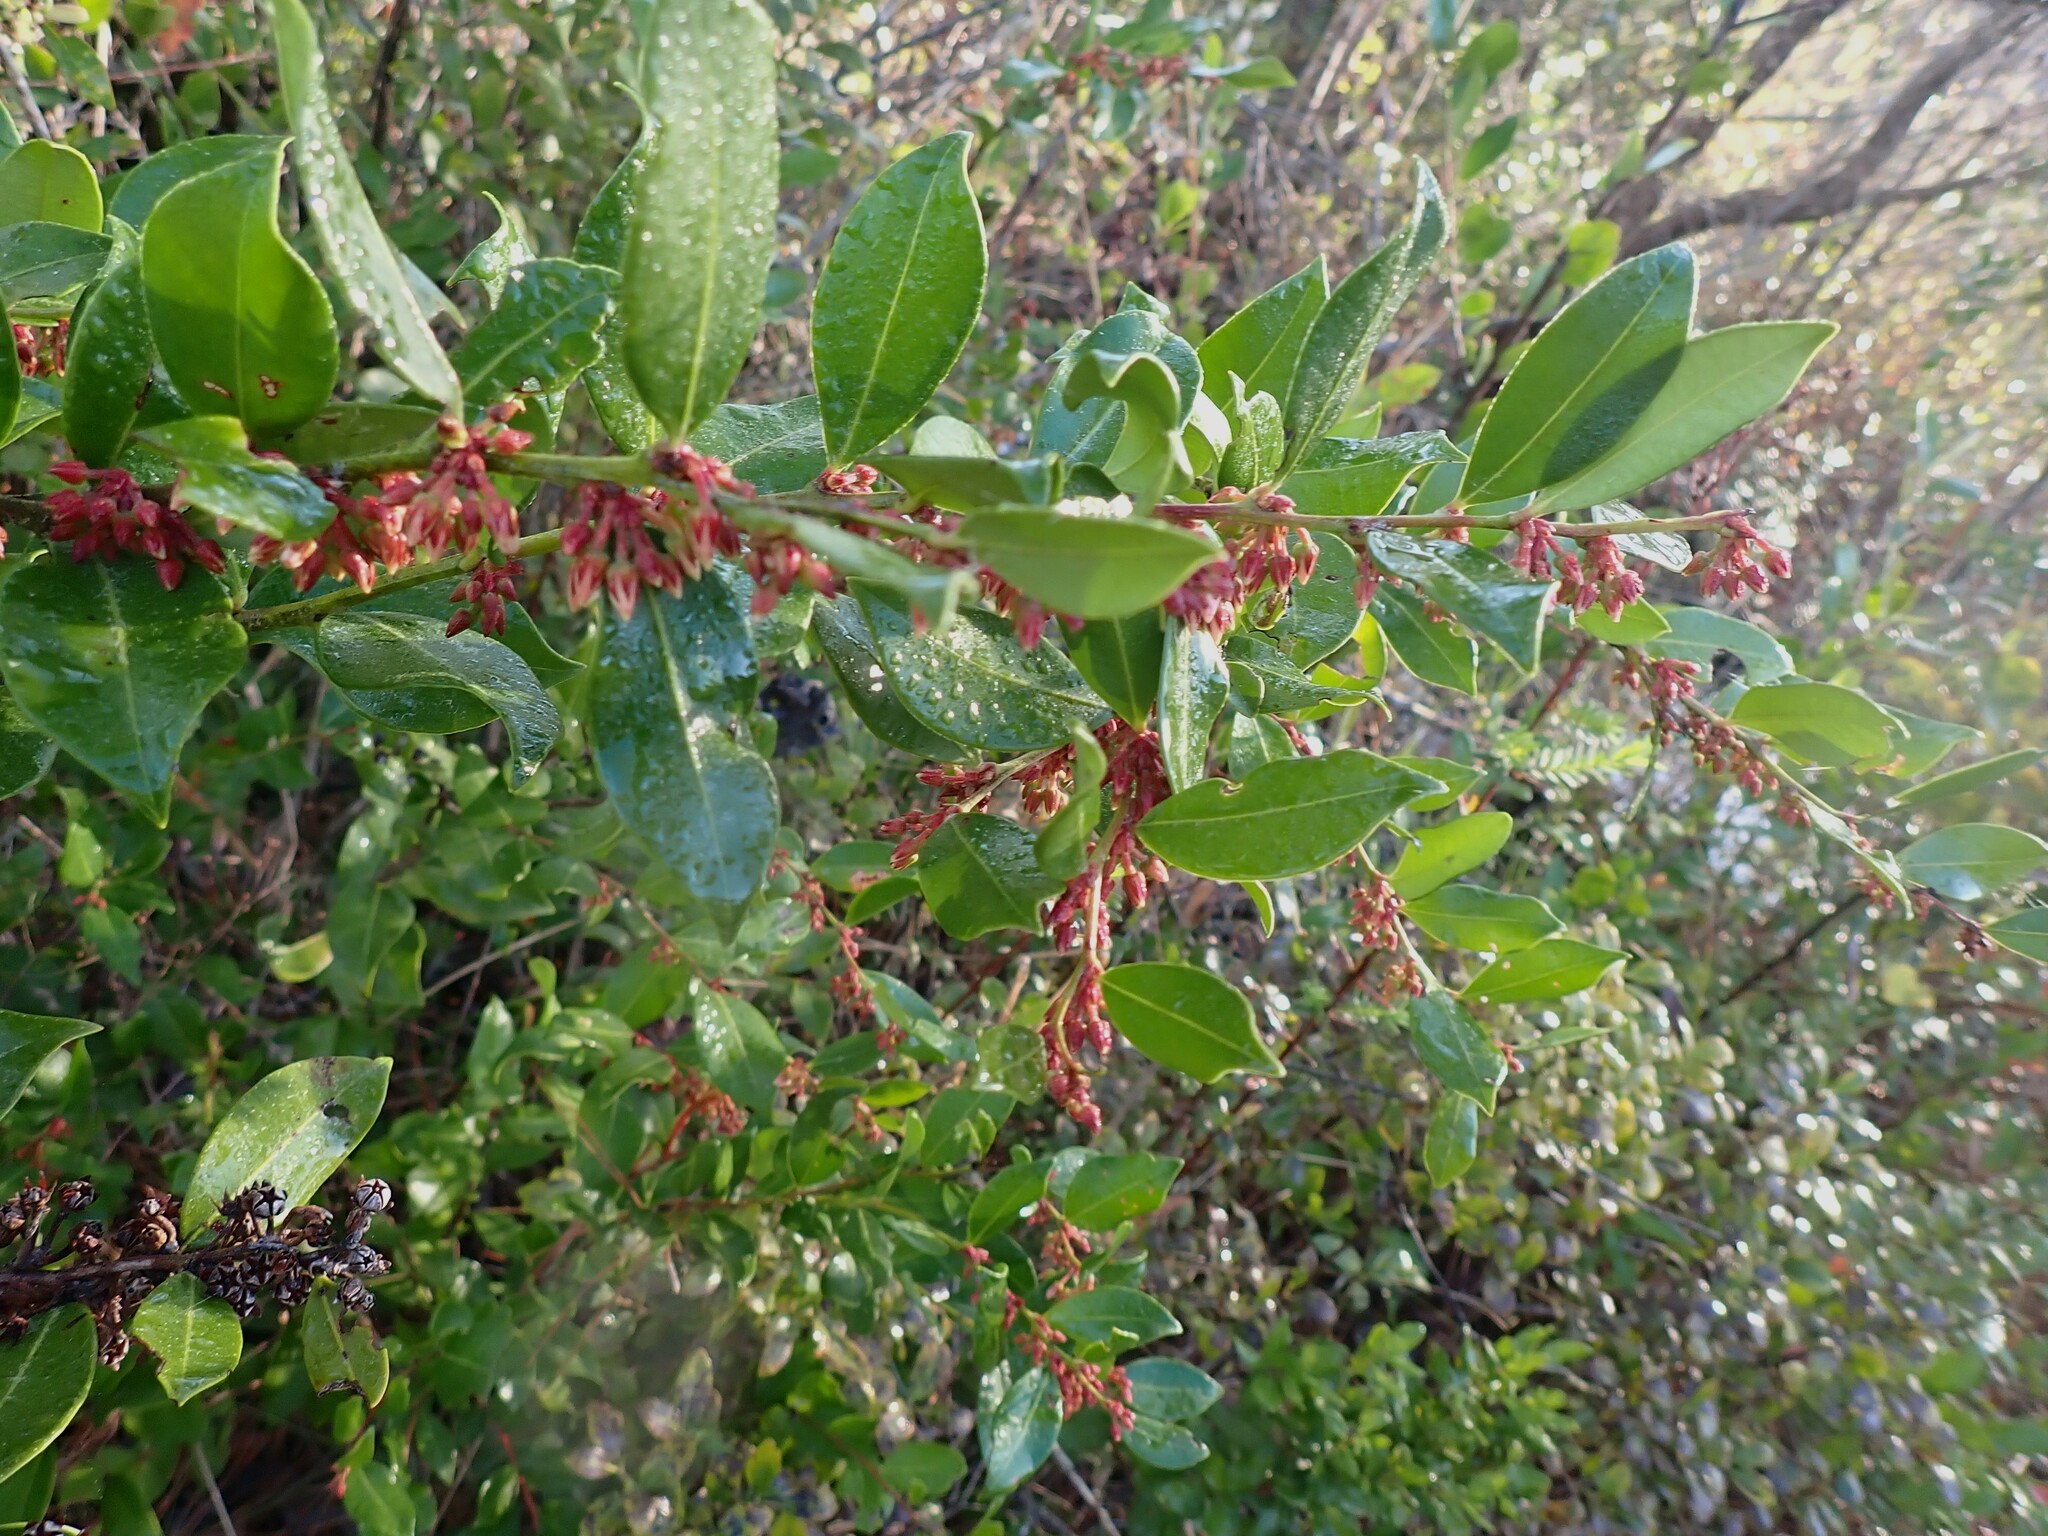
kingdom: Plantae
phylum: Tracheophyta
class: Magnoliopsida
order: Ericales
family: Ericaceae
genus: Lyonia
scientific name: Lyonia lucida
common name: Fetterbush
